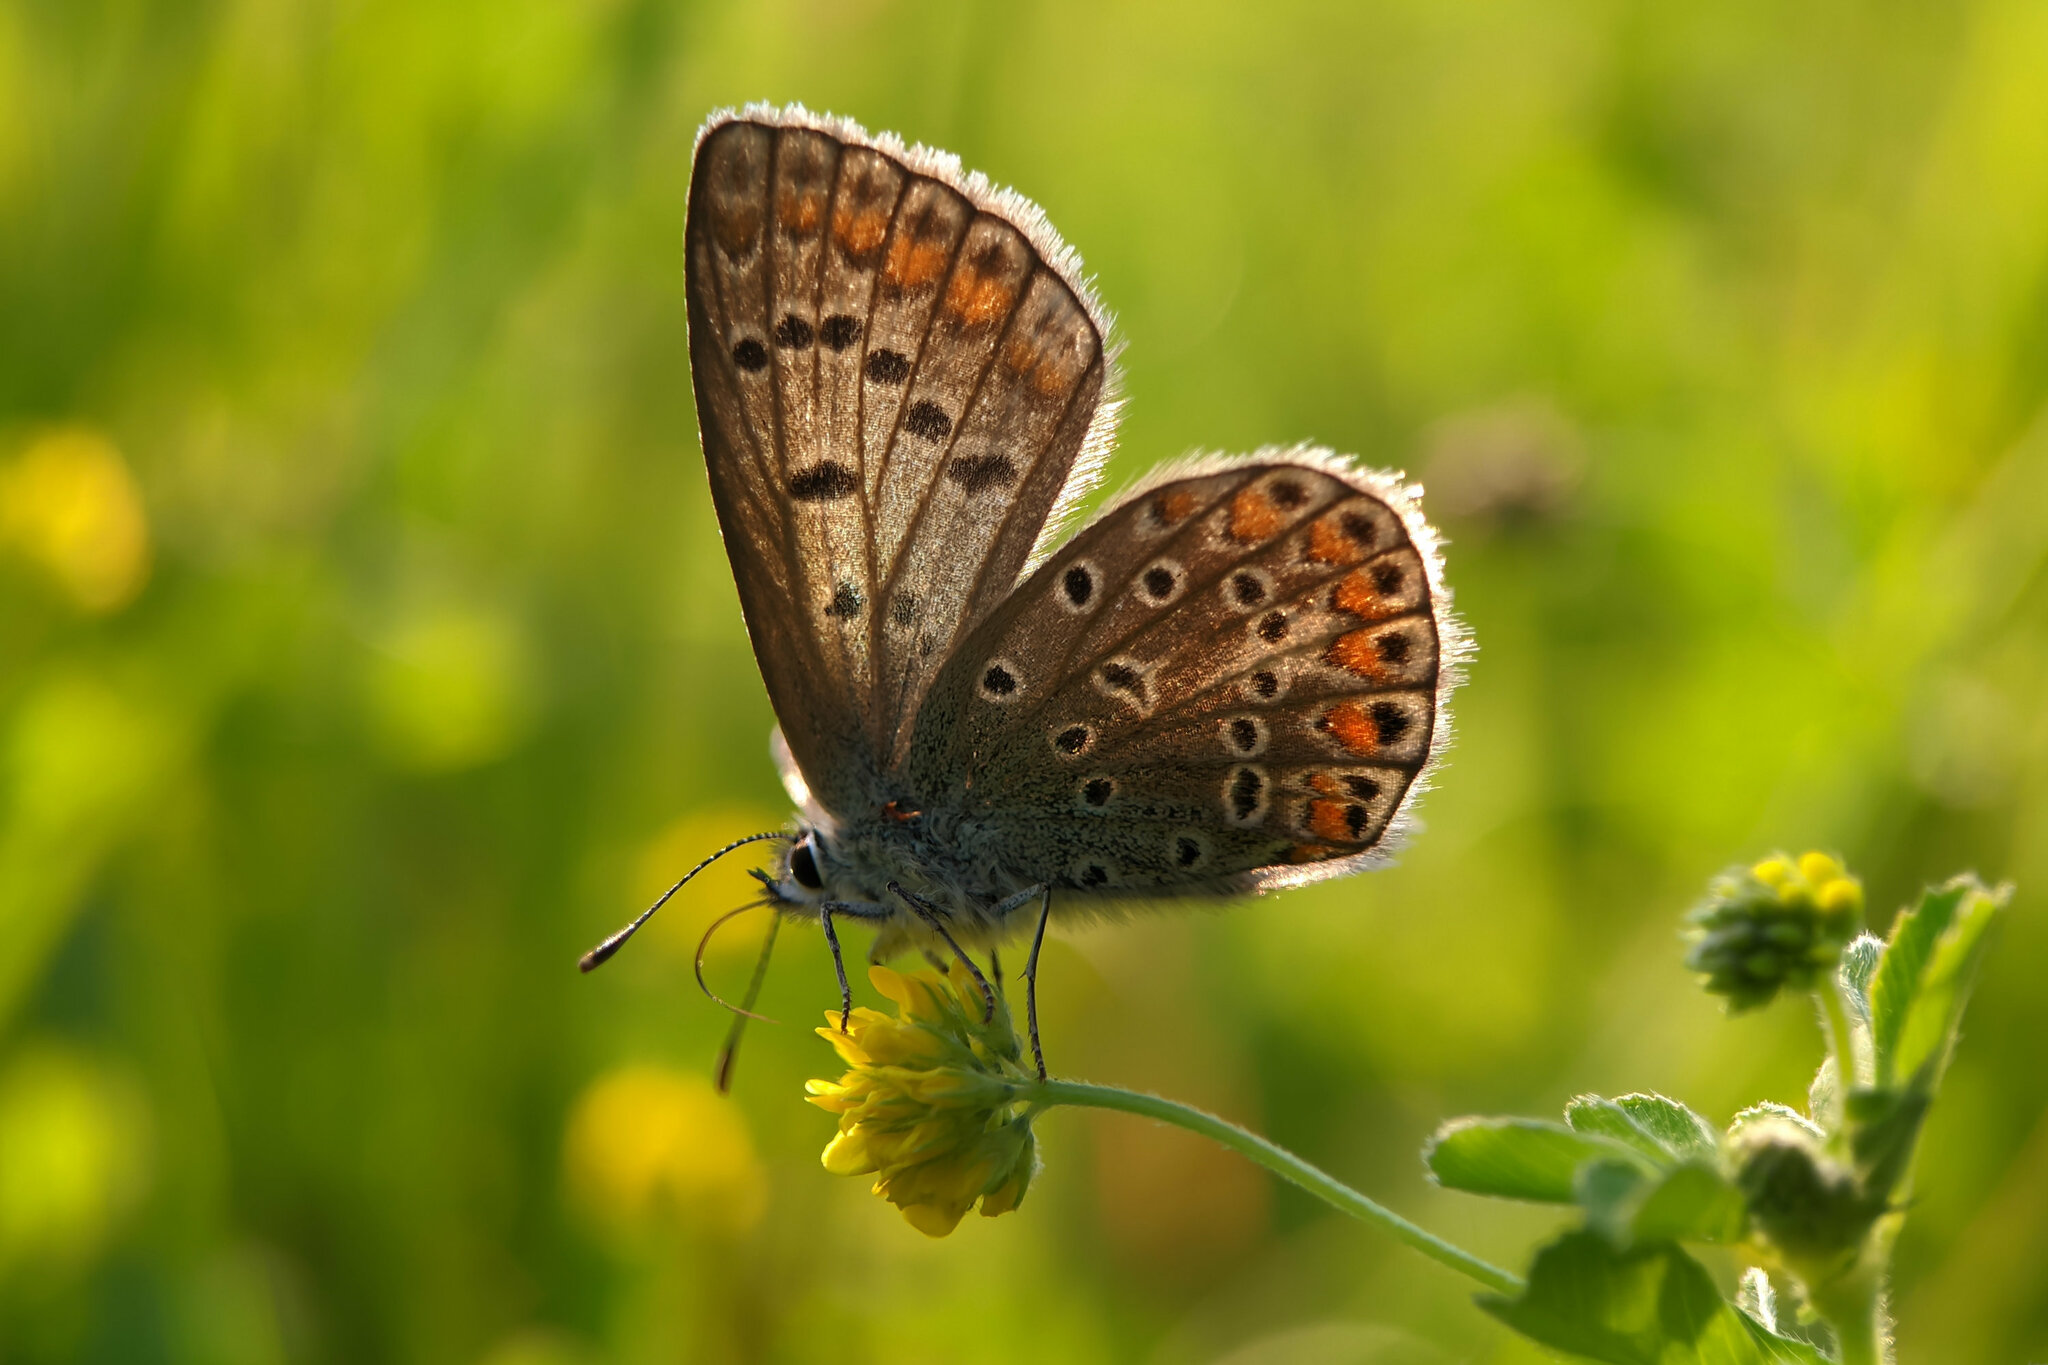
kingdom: Animalia
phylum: Arthropoda
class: Insecta
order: Lepidoptera
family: Lycaenidae
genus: Polyommatus
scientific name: Polyommatus icarus
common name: Common blue
